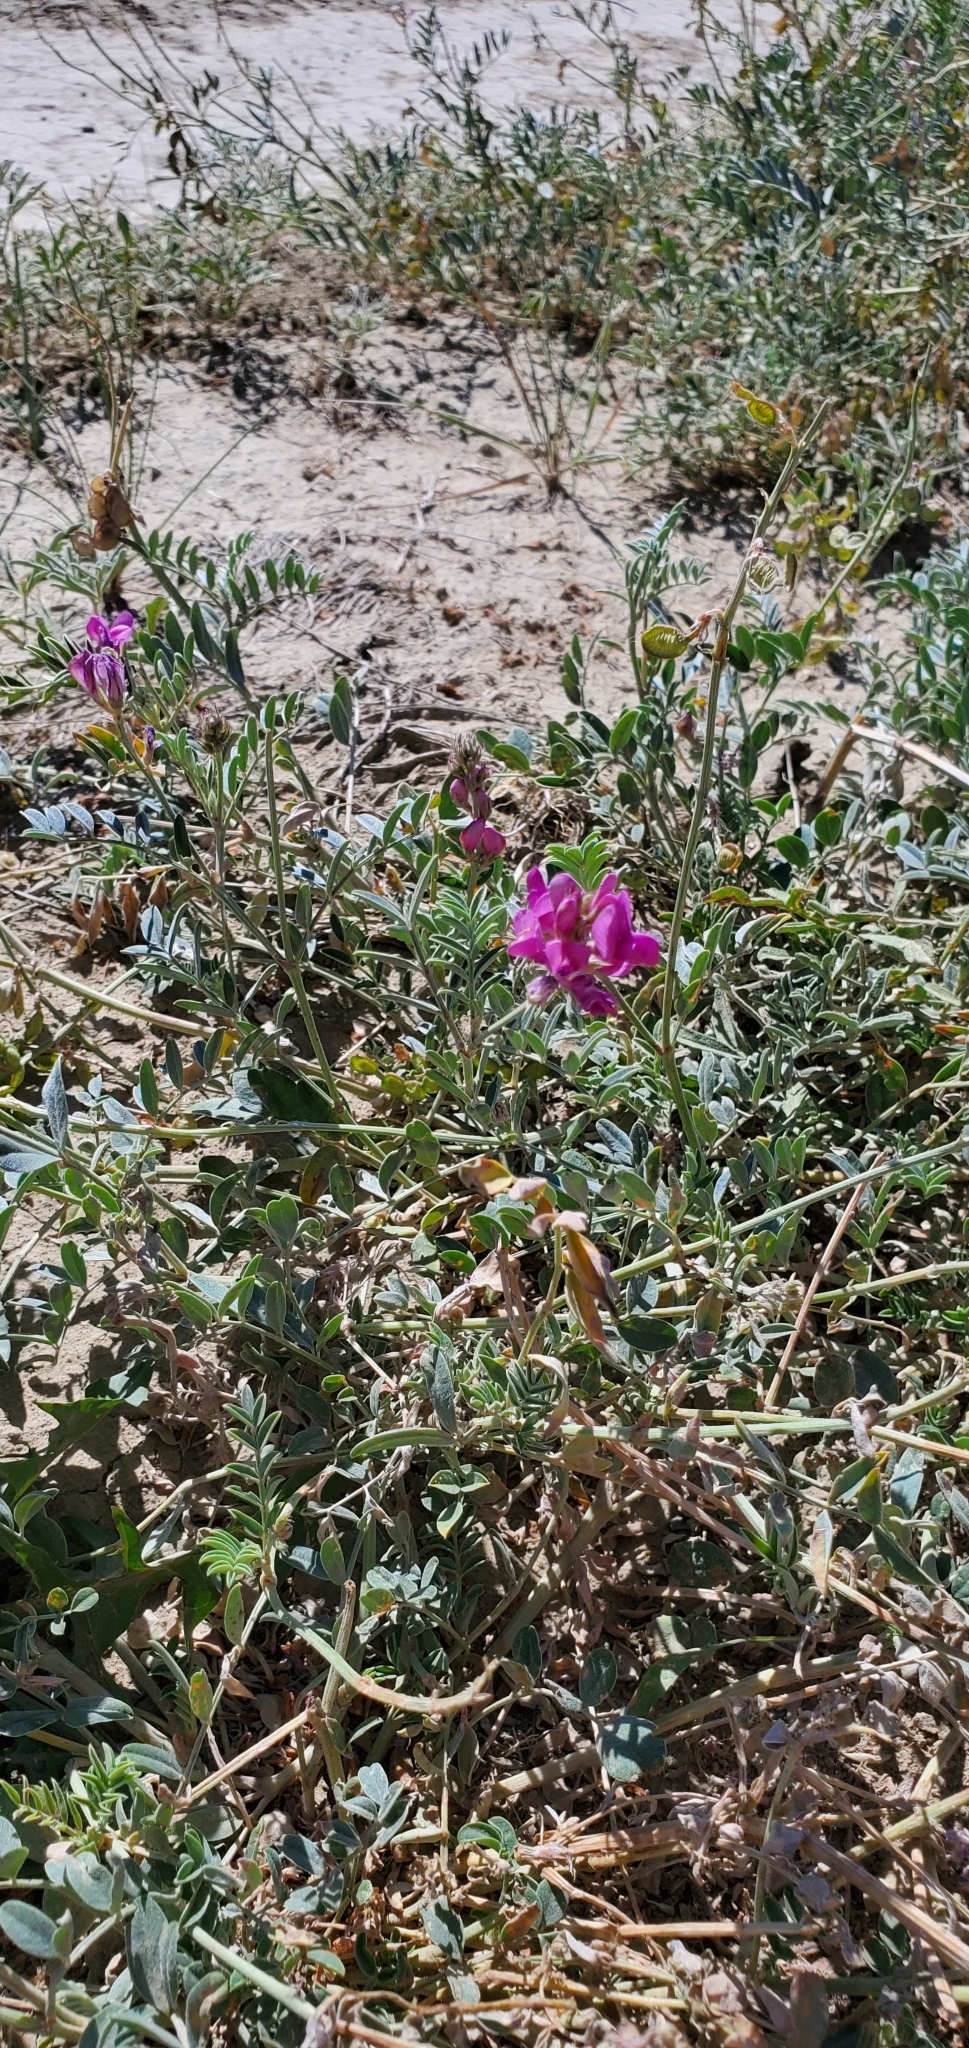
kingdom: Plantae
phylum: Tracheophyta
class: Magnoliopsida
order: Fabales
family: Fabaceae
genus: Hedysarum
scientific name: Hedysarum boreale
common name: Northern sweet-vetch
